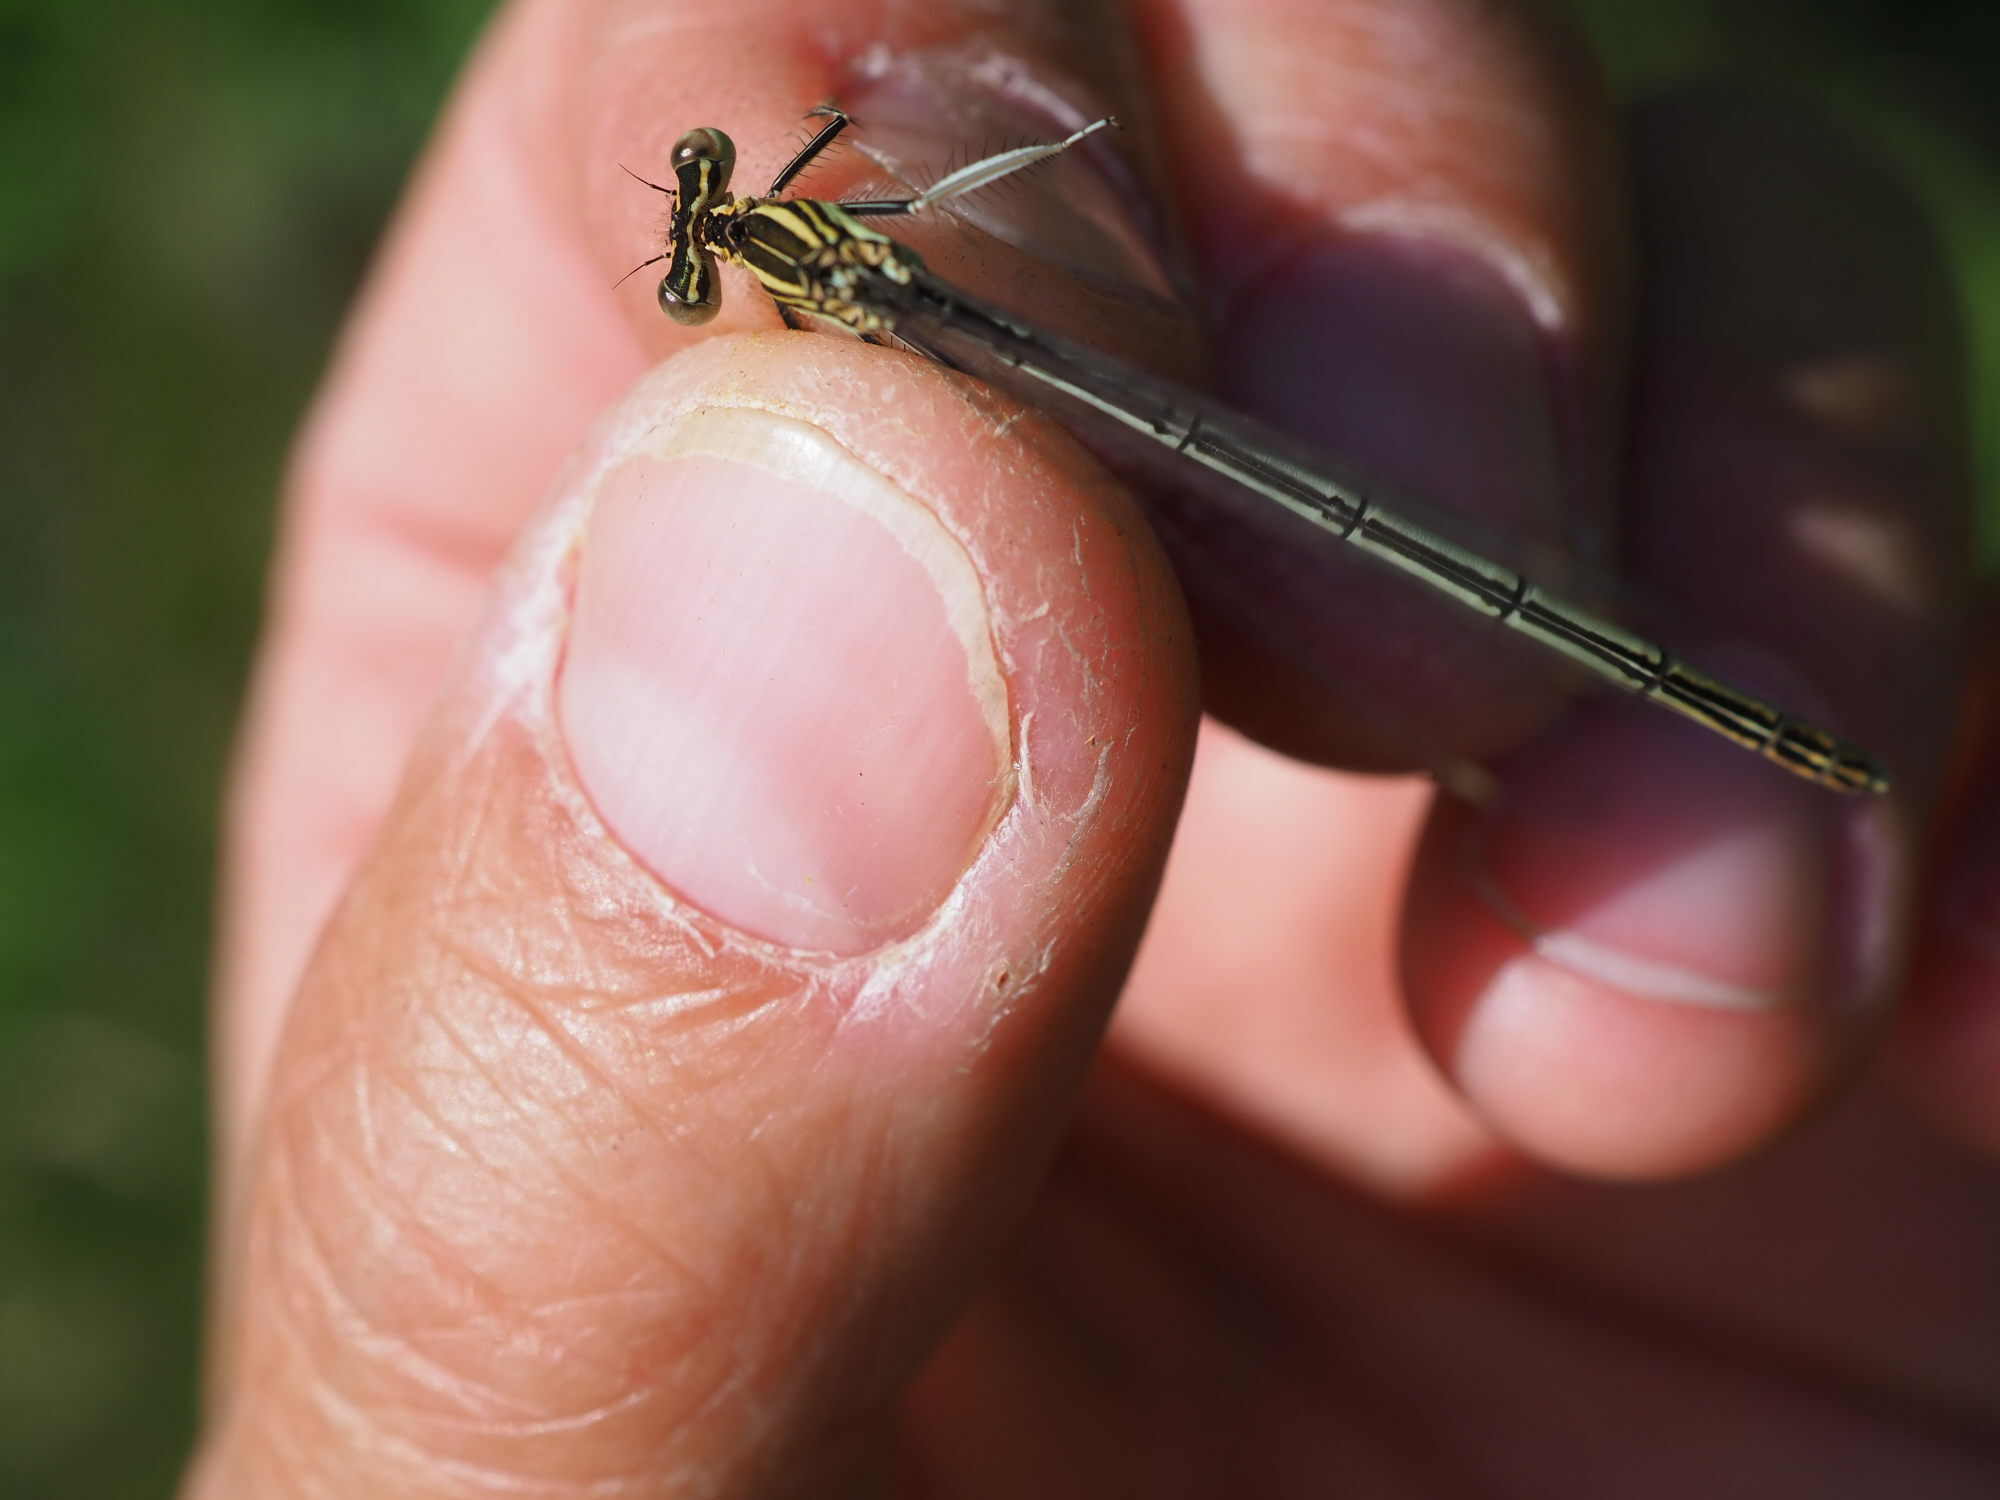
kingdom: Animalia
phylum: Arthropoda
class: Insecta
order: Odonata
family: Platycnemididae
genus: Platycnemis
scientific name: Platycnemis pennipes
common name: White-legged damselfly
